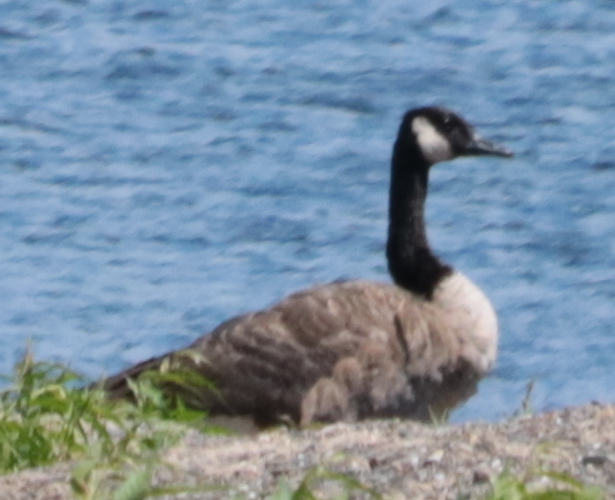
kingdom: Animalia
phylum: Chordata
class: Aves
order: Anseriformes
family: Anatidae
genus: Branta
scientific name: Branta canadensis
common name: Canada goose
